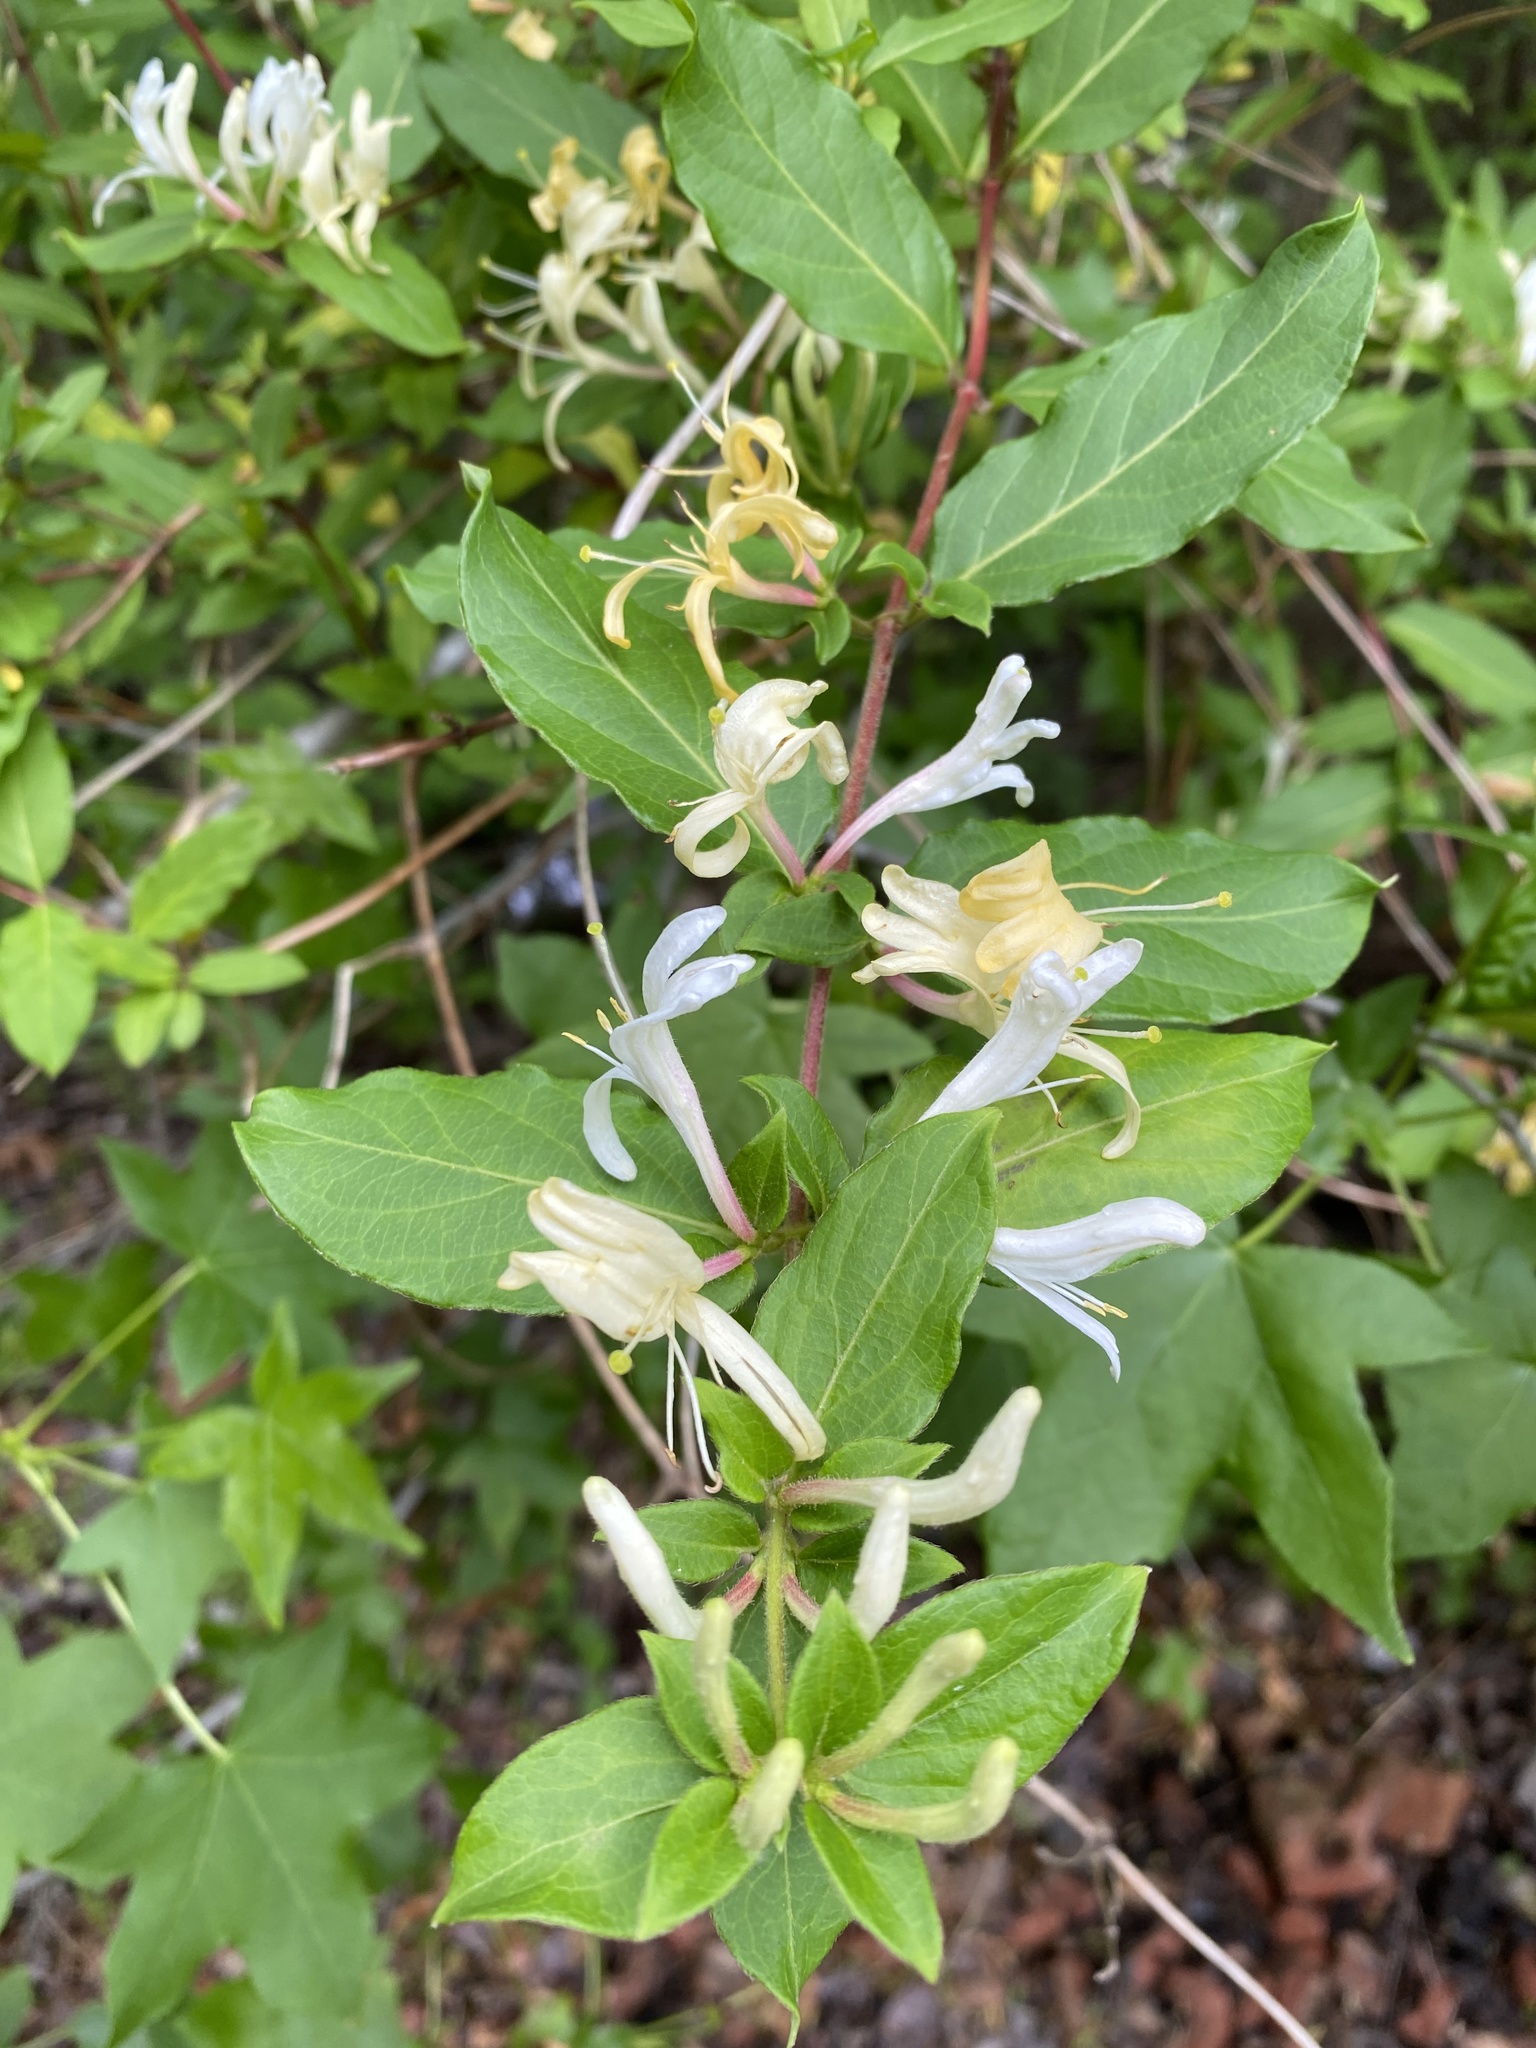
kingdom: Plantae
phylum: Tracheophyta
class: Magnoliopsida
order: Dipsacales
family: Caprifoliaceae
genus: Lonicera
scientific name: Lonicera japonica
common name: Japanese honeysuckle
